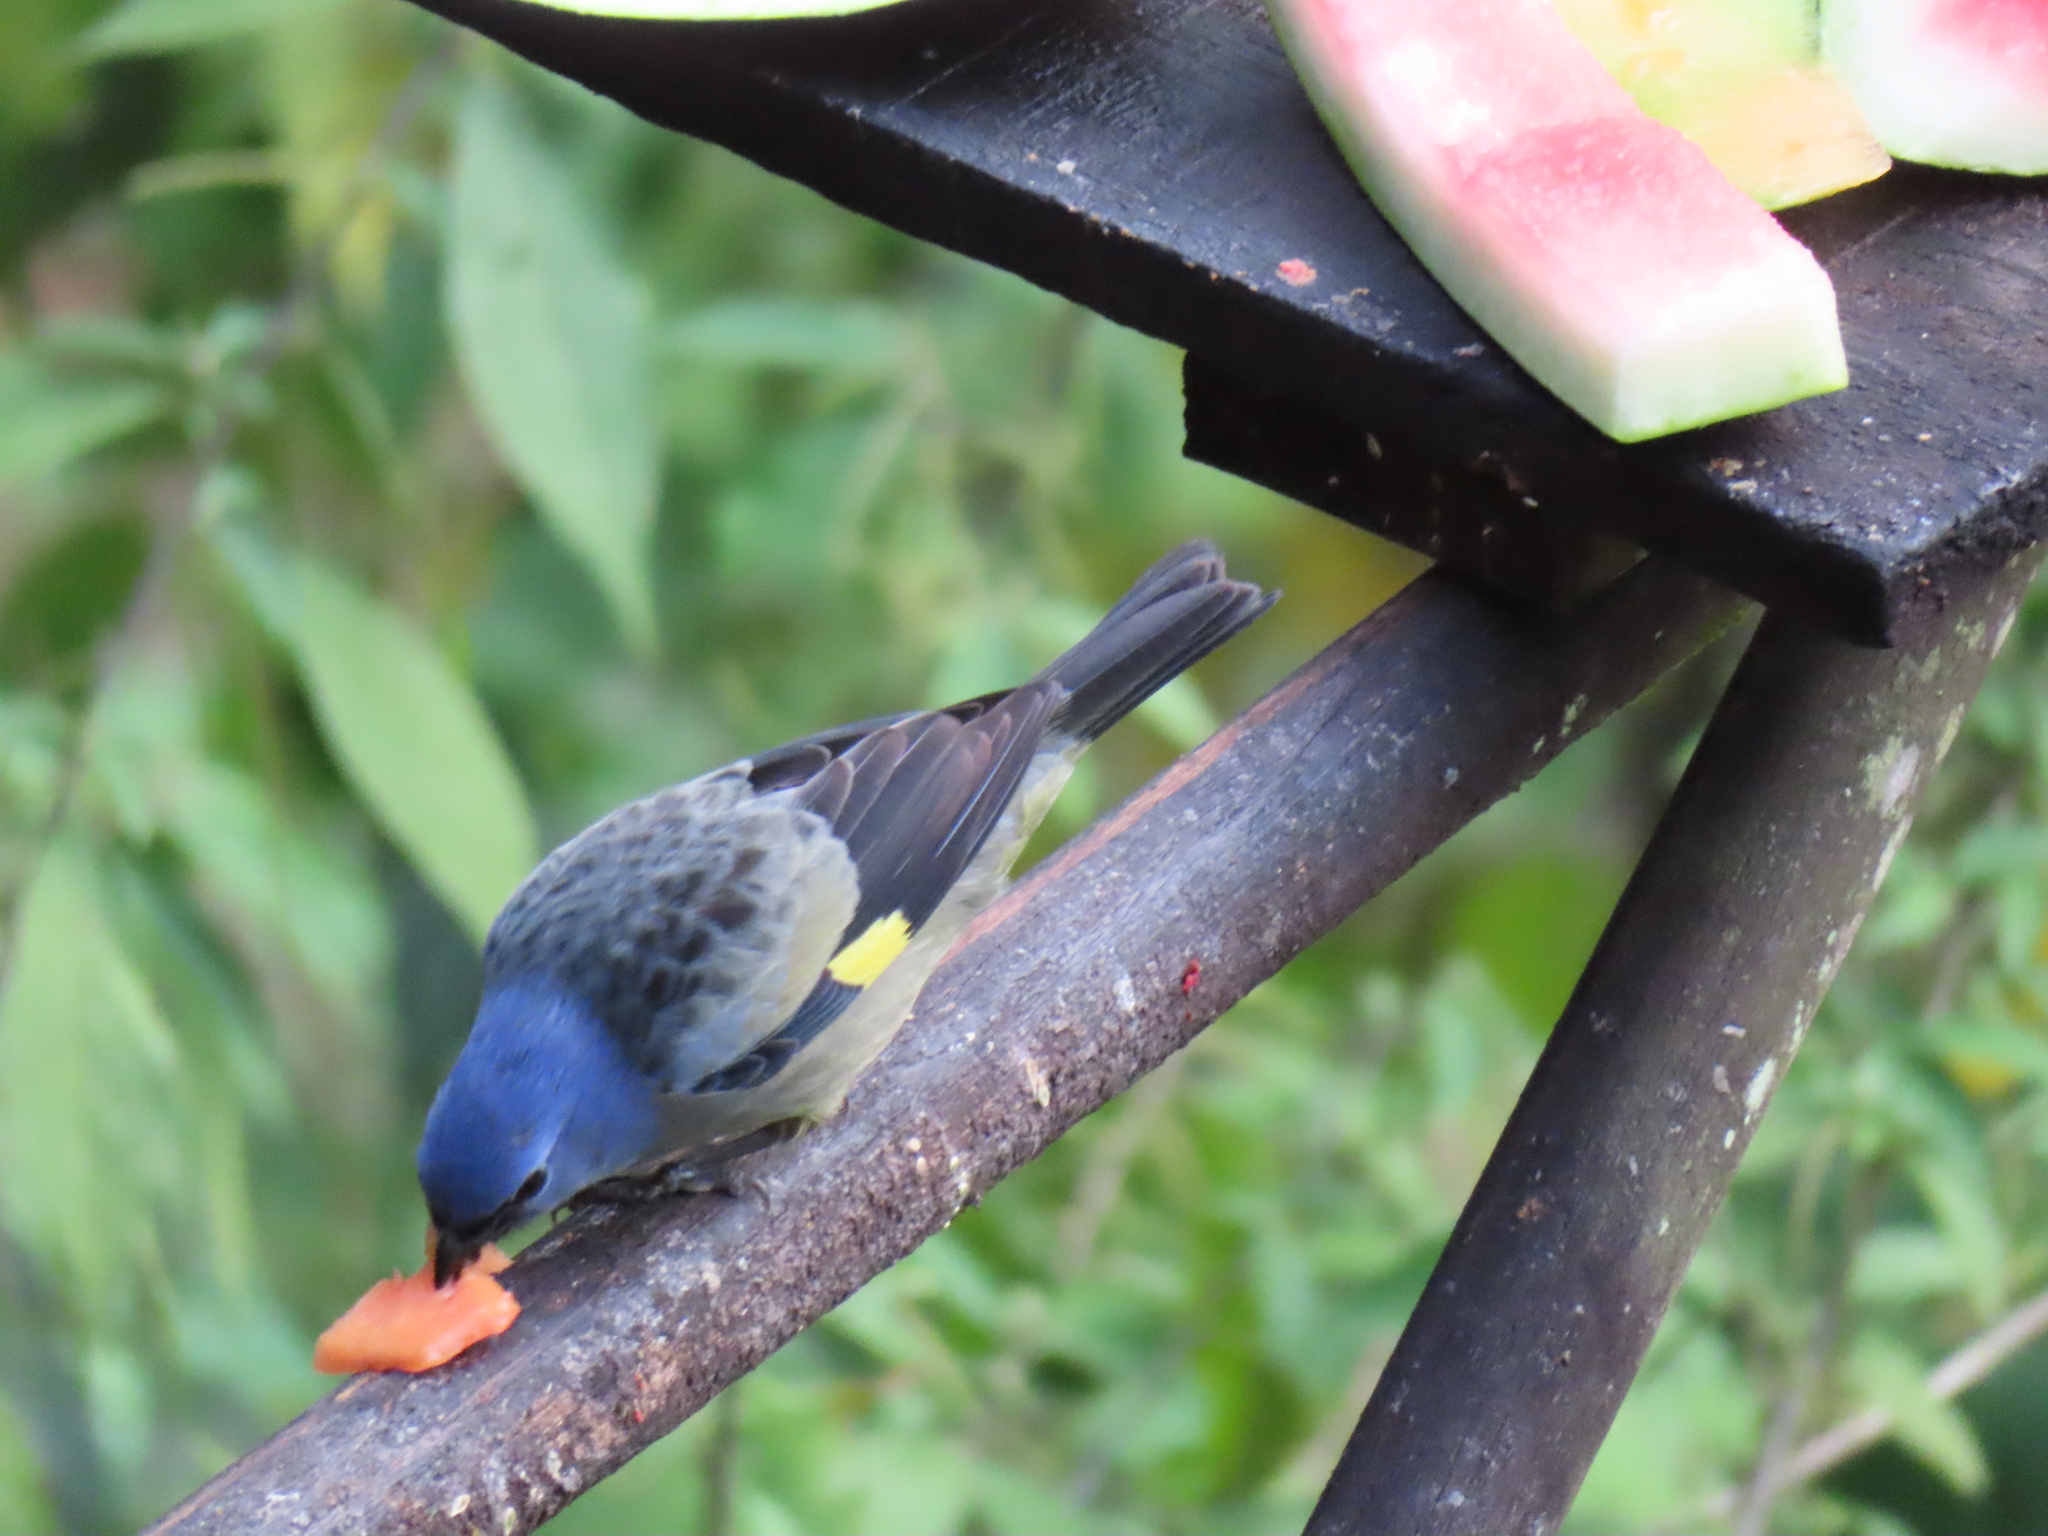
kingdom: Animalia
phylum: Chordata
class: Aves
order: Passeriformes
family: Thraupidae
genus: Thraupis
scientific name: Thraupis abbas
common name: Yellow-winged tanager
